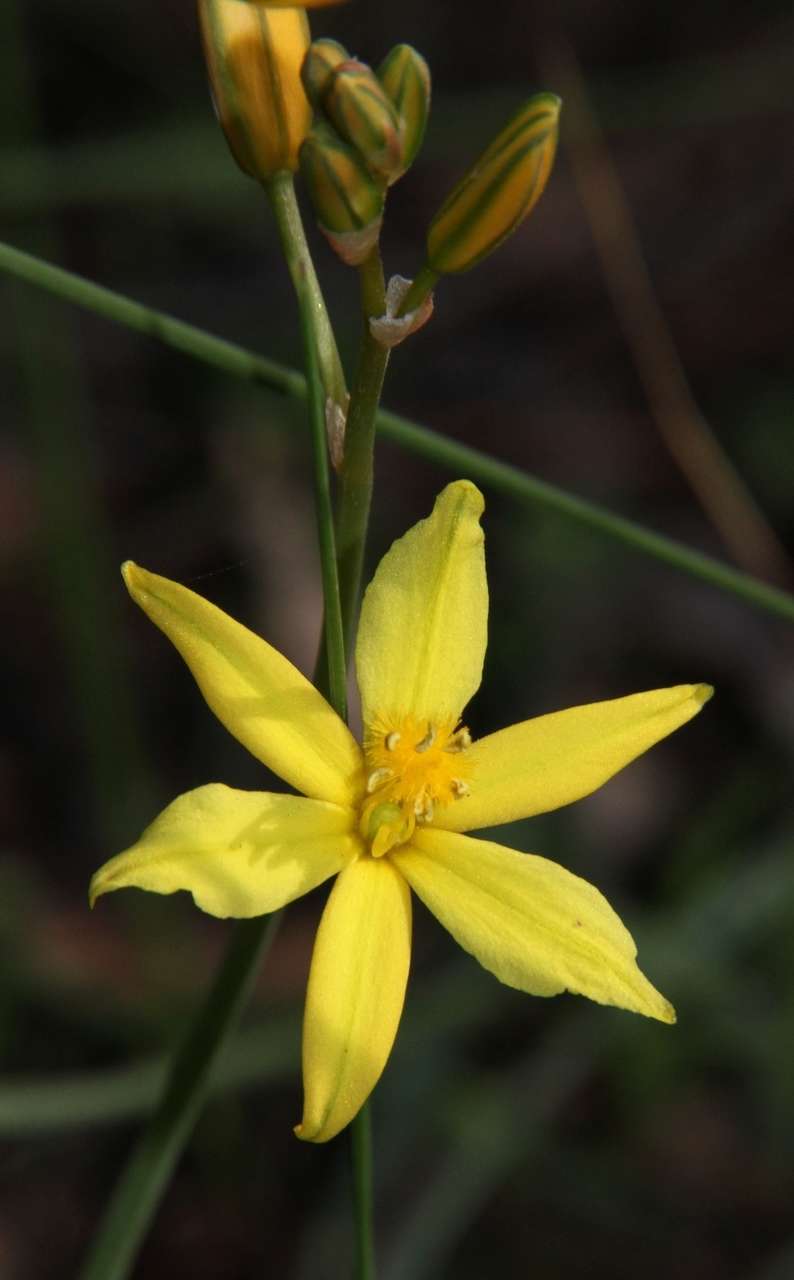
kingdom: Plantae
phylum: Tracheophyta
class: Liliopsida
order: Asparagales
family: Asphodelaceae
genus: Bulbine
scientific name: Bulbine bulbosa
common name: Golden-lily
